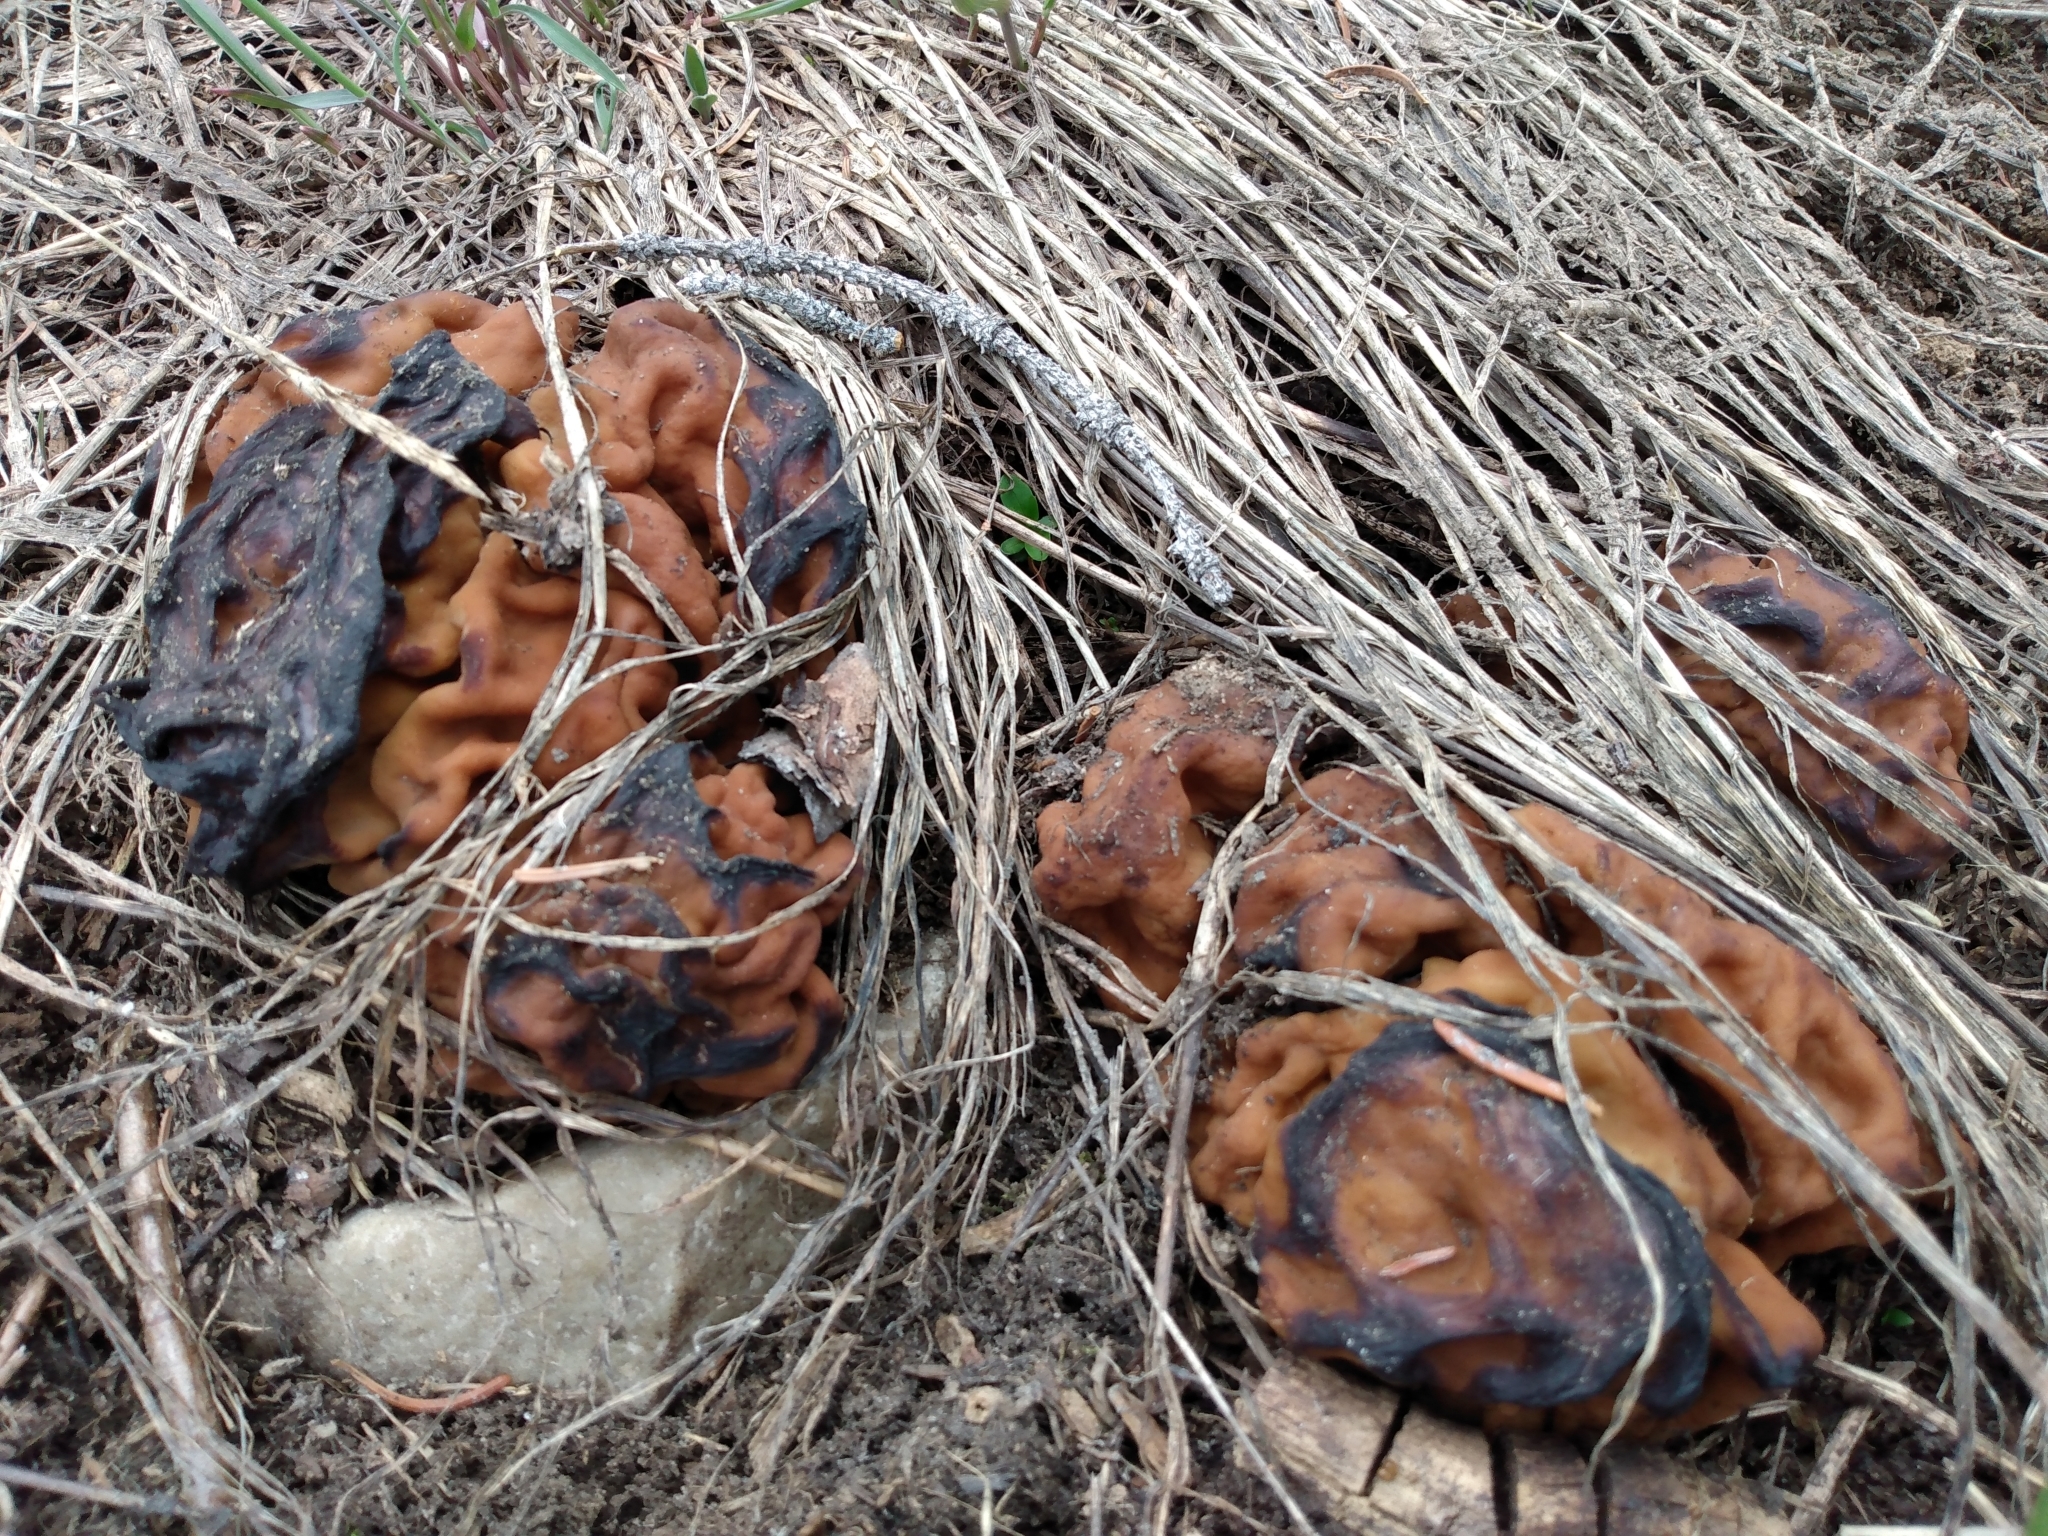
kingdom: Fungi
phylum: Ascomycota
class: Pezizomycetes
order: Pezizales
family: Discinaceae
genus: Discina
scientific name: Discina montana
